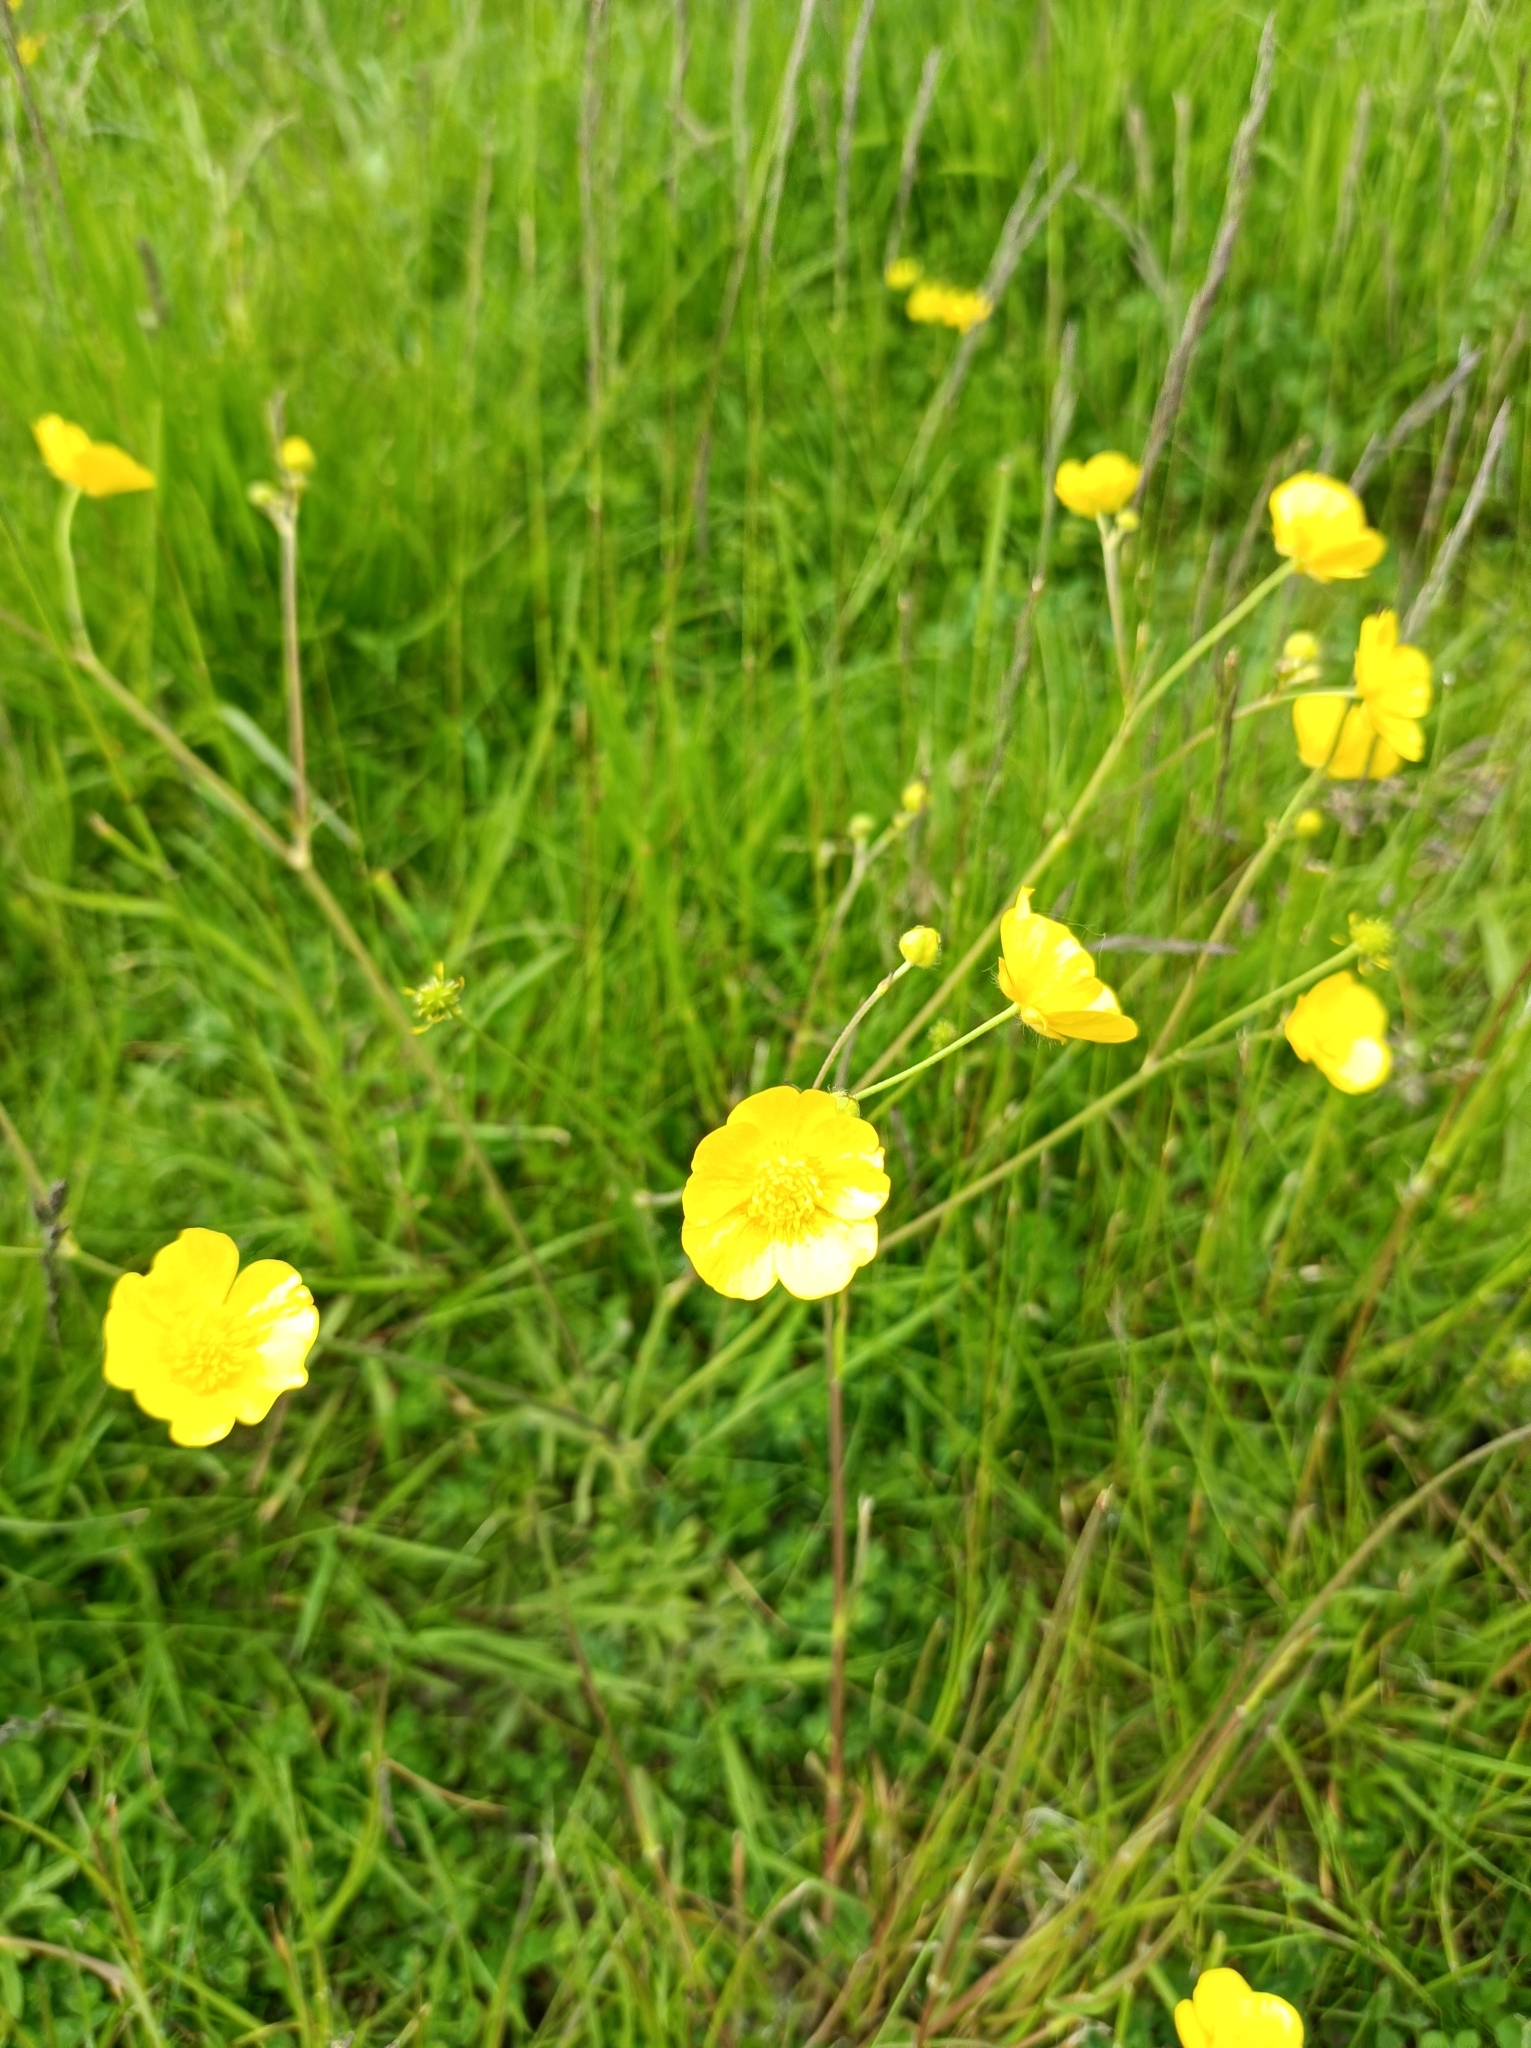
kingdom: Plantae
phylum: Tracheophyta
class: Magnoliopsida
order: Ranunculales
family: Ranunculaceae
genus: Ranunculus
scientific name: Ranunculus acris
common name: Meadow buttercup
